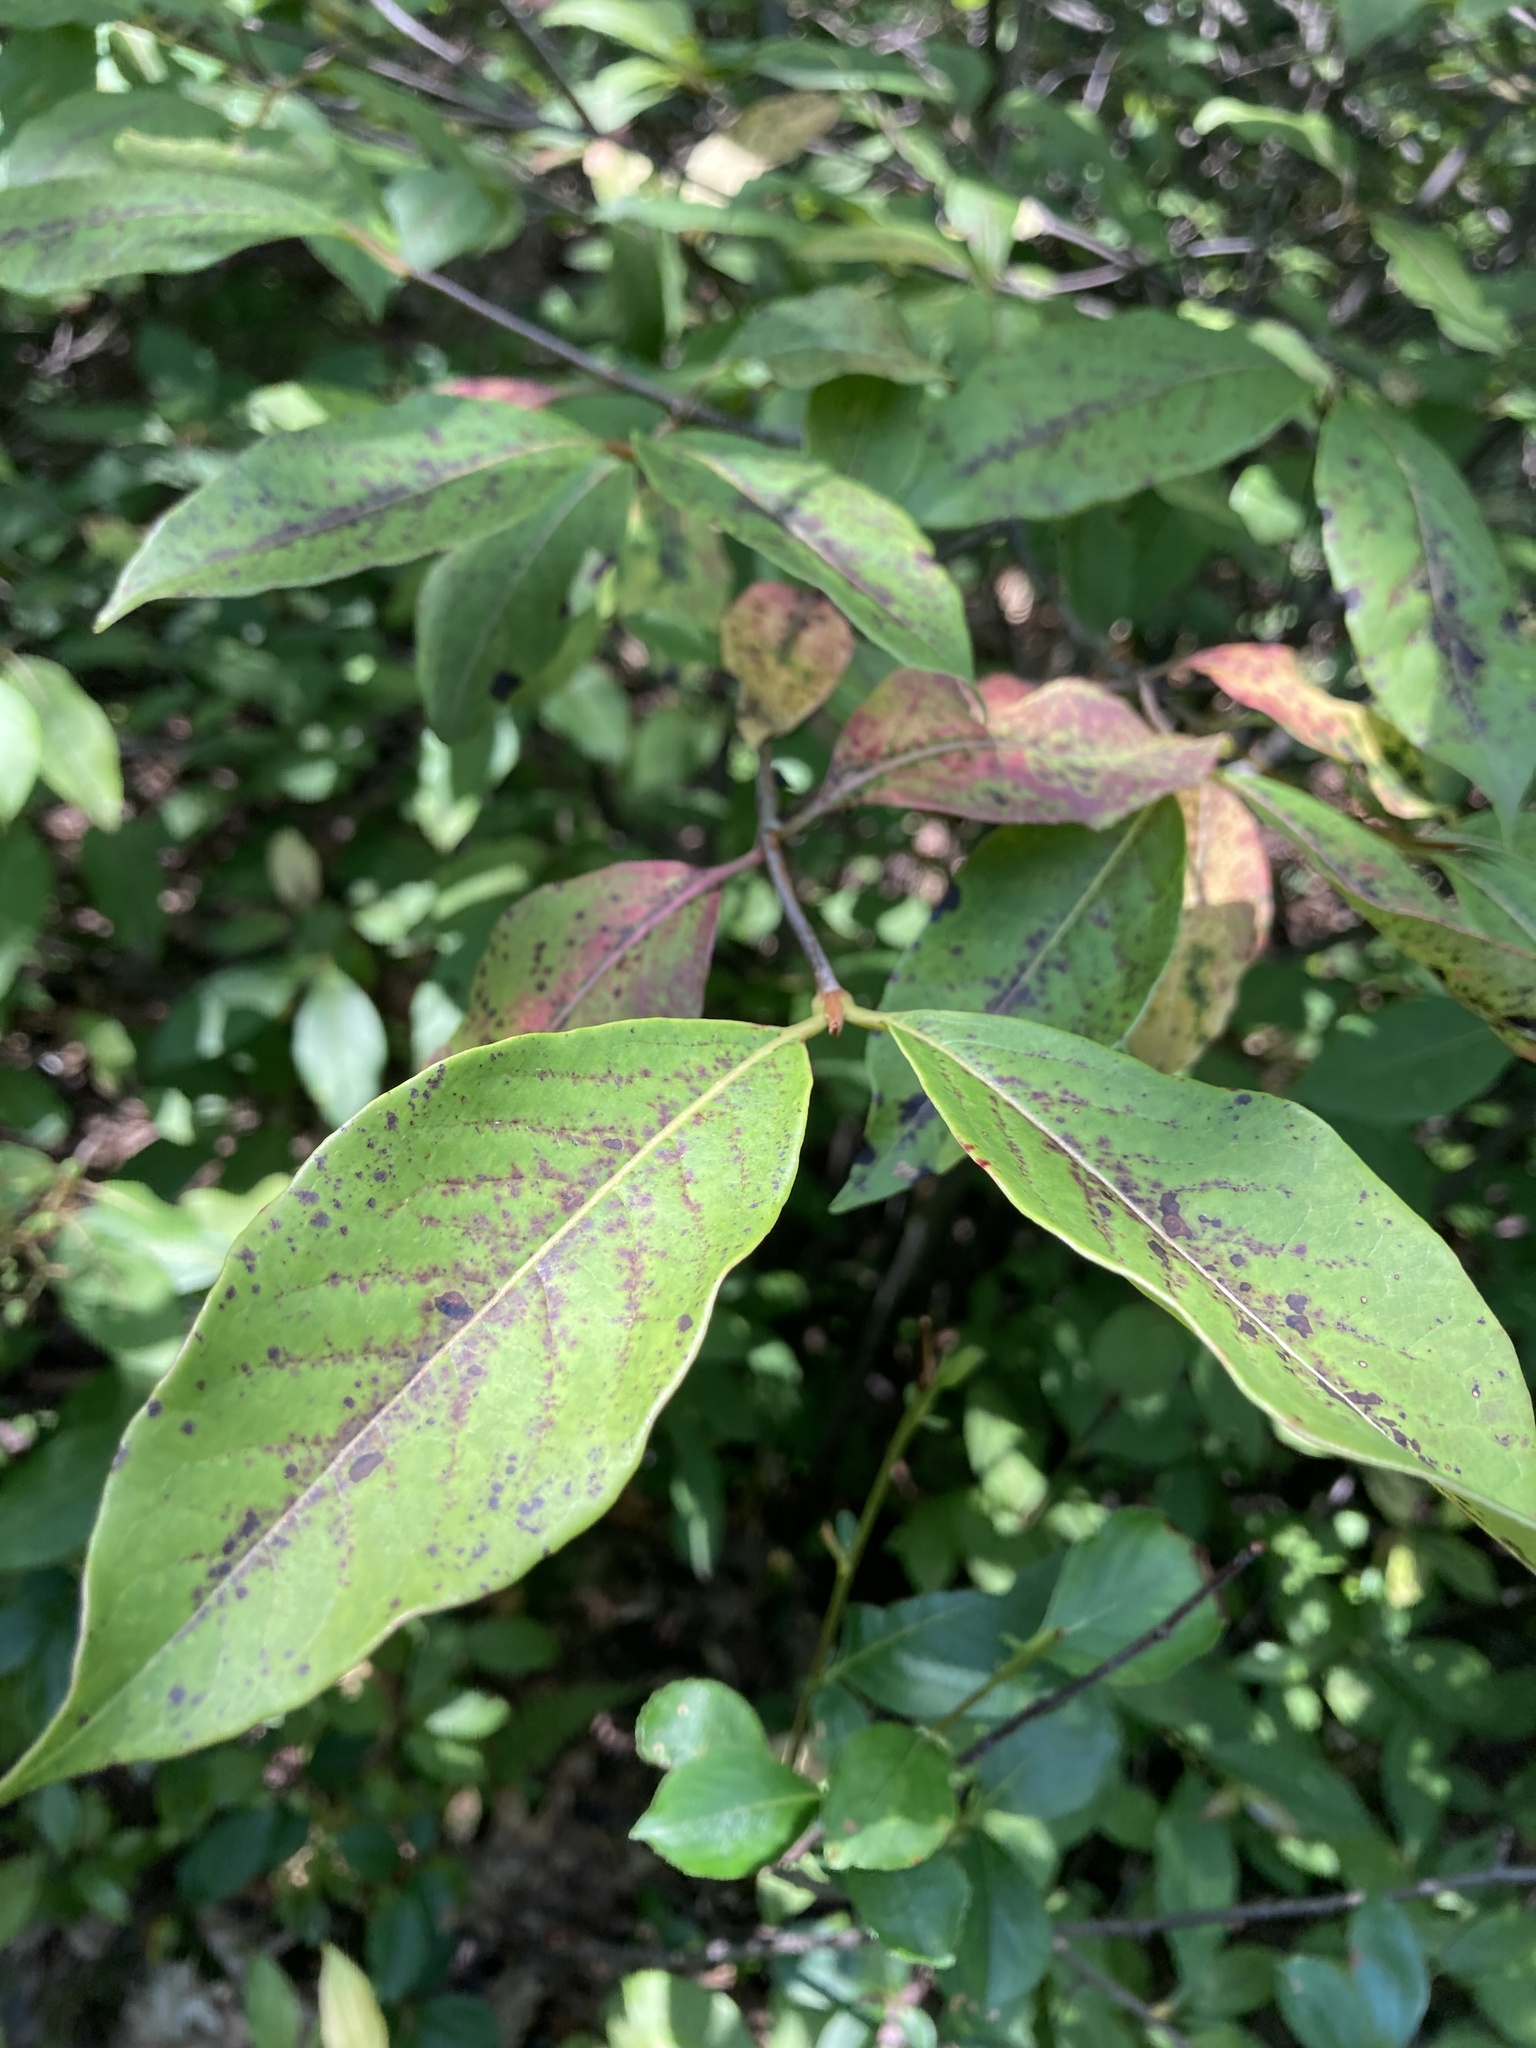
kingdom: Plantae
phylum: Tracheophyta
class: Magnoliopsida
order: Dipsacales
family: Viburnaceae
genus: Viburnum
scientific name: Viburnum cassinoides
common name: Swamp haw
